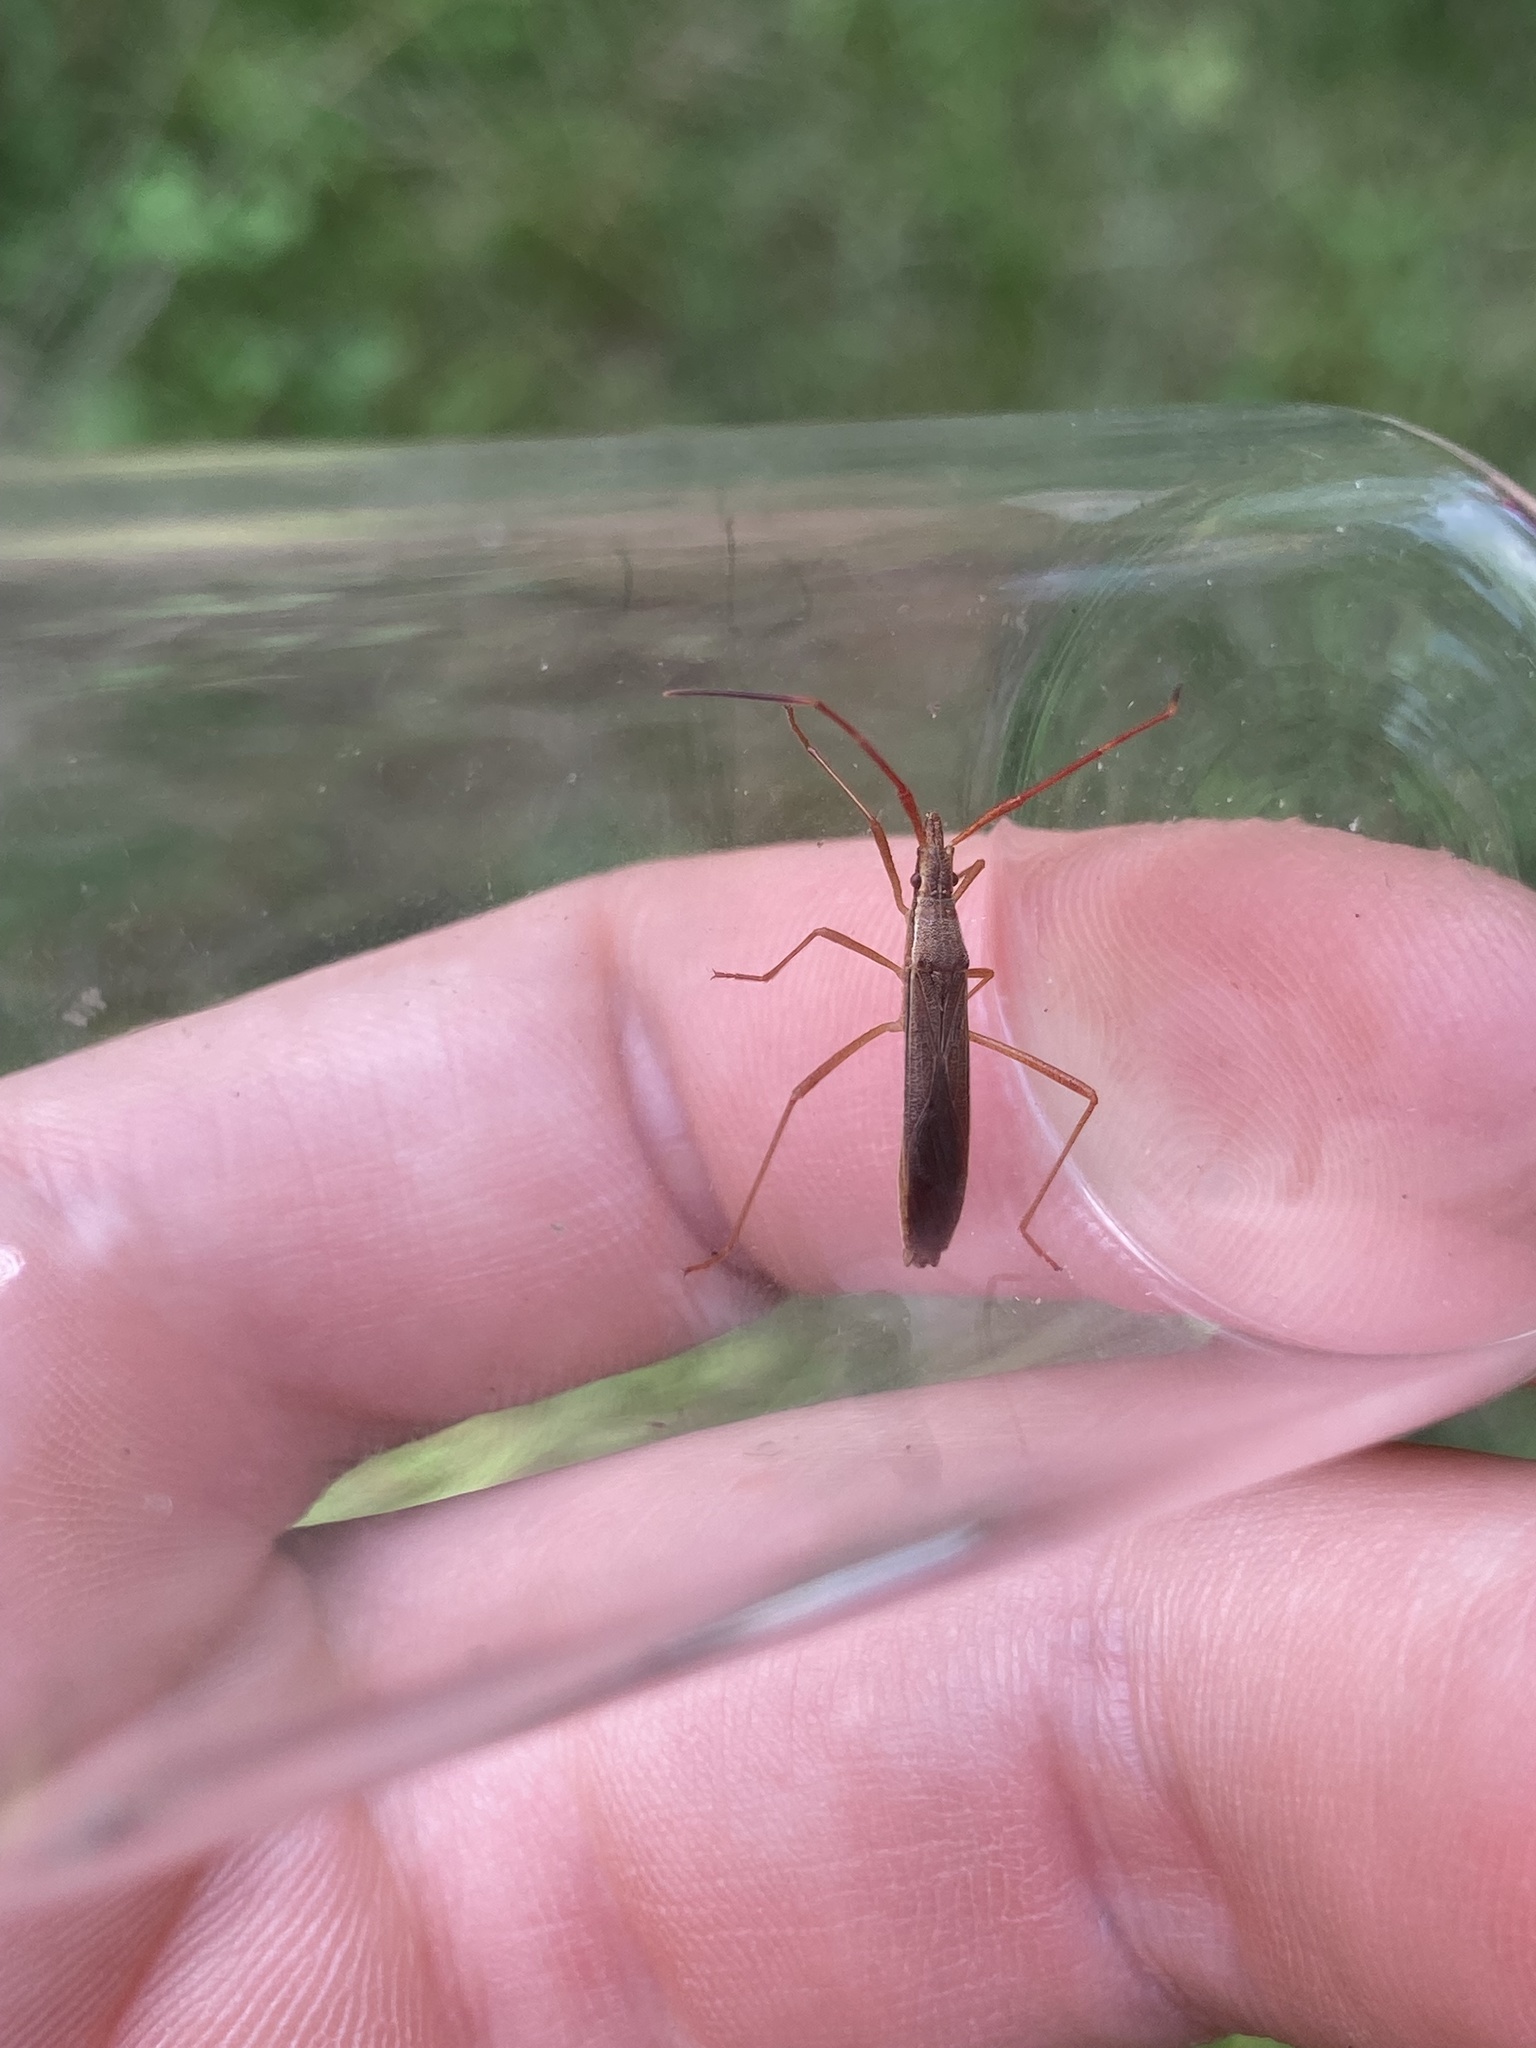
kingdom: Animalia
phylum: Arthropoda
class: Insecta
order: Hemiptera
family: Alydidae
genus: Protenor
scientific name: Protenor belfragei
